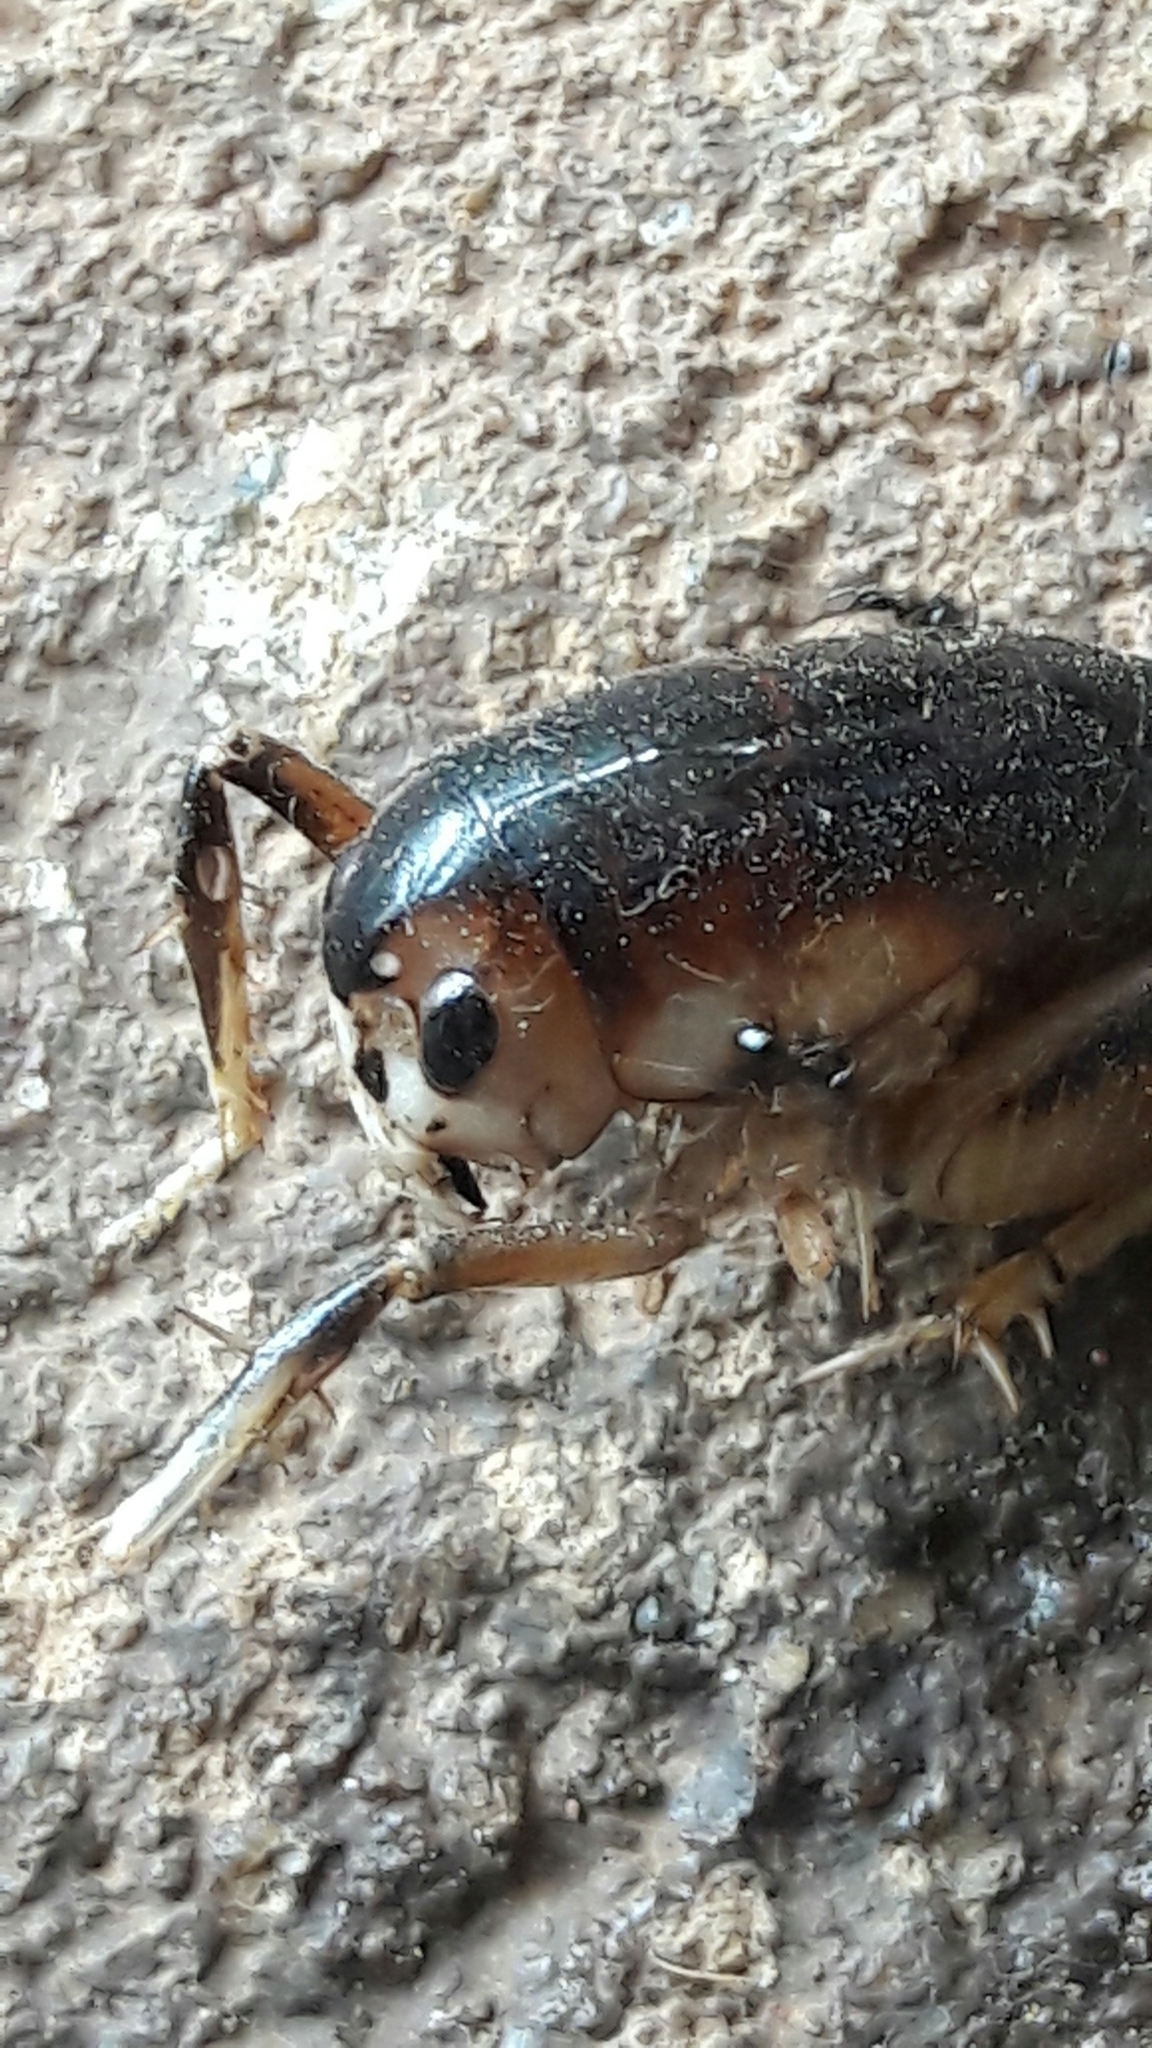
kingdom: Animalia
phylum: Arthropoda
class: Insecta
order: Orthoptera
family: Anostostomatidae
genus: Apotetamenus
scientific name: Apotetamenus clipeatus
